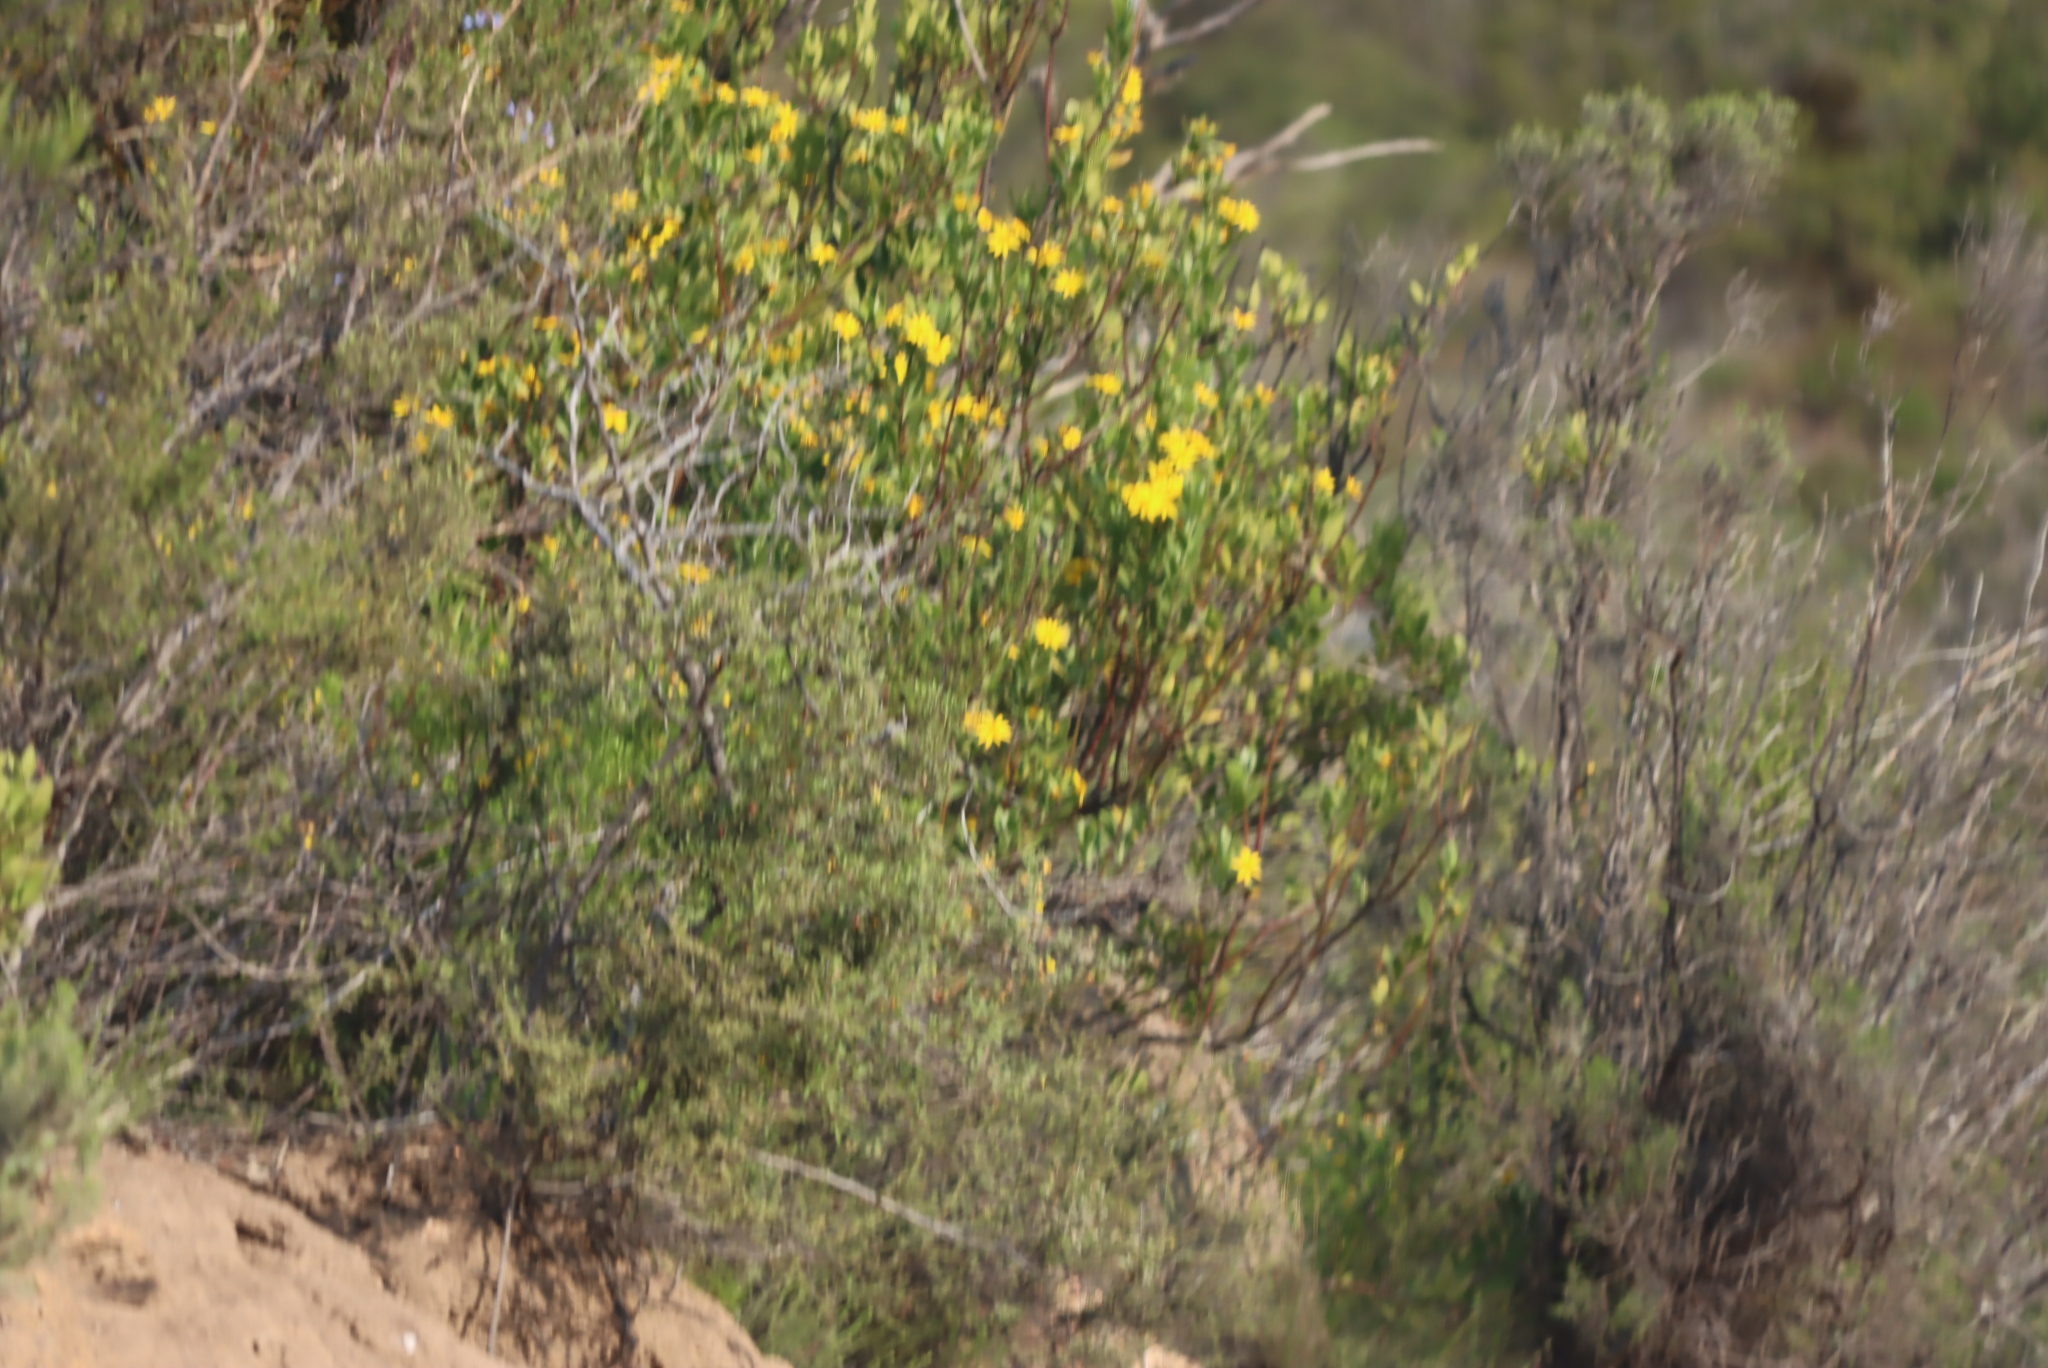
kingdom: Plantae
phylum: Tracheophyta
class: Magnoliopsida
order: Asterales
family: Asteraceae
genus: Osteospermum
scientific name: Osteospermum moniliferum
